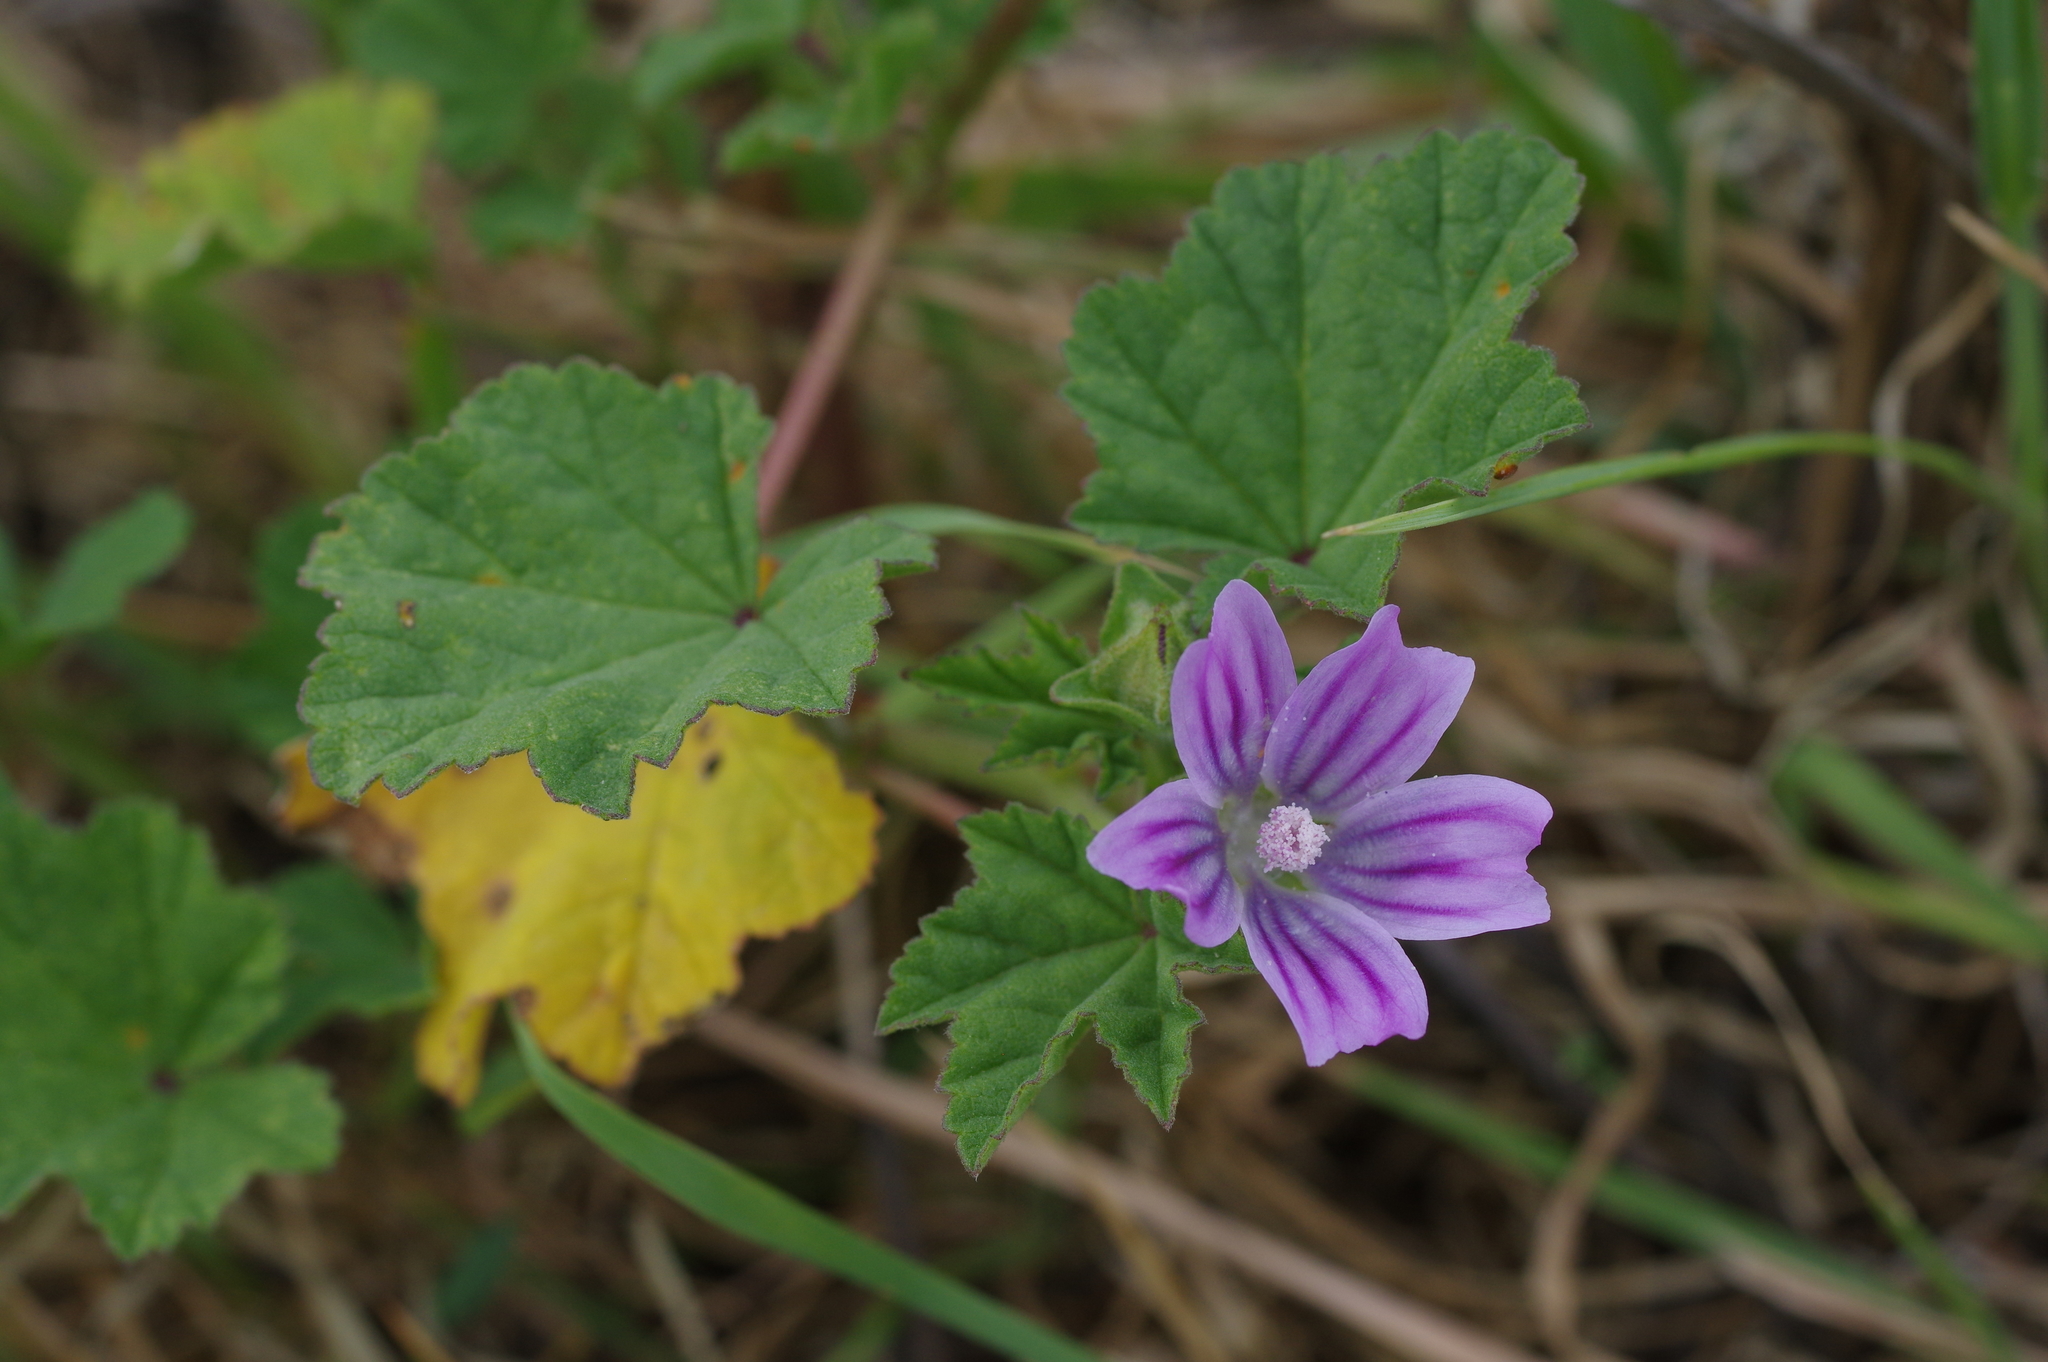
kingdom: Plantae
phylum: Tracheophyta
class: Magnoliopsida
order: Malvales
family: Malvaceae
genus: Malva
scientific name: Malva multiflora
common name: Cheeseweed
